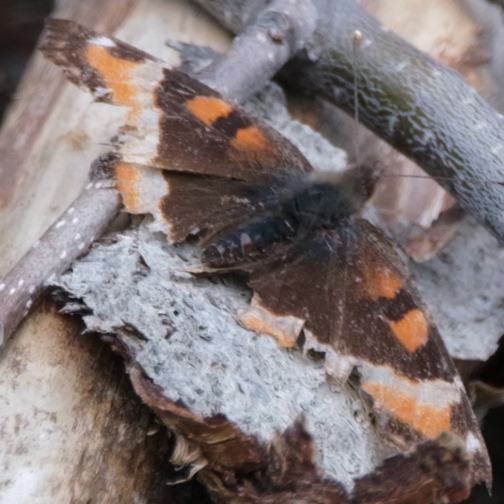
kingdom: Animalia
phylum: Arthropoda
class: Insecta
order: Lepidoptera
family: Nymphalidae
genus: Aglais
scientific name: Aglais milberti
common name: Milbert's tortoiseshell
